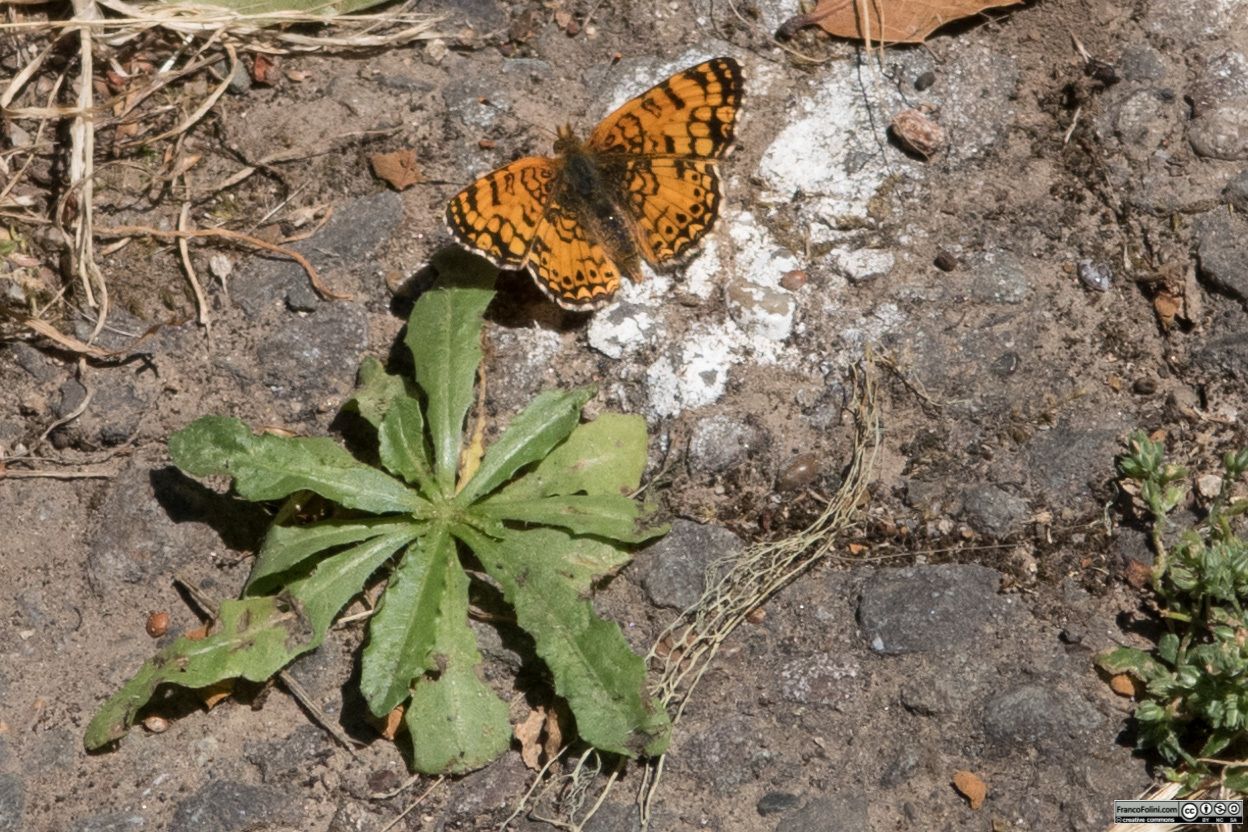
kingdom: Animalia
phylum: Arthropoda
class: Insecta
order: Lepidoptera
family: Nymphalidae
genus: Eresia
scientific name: Eresia aveyrona
